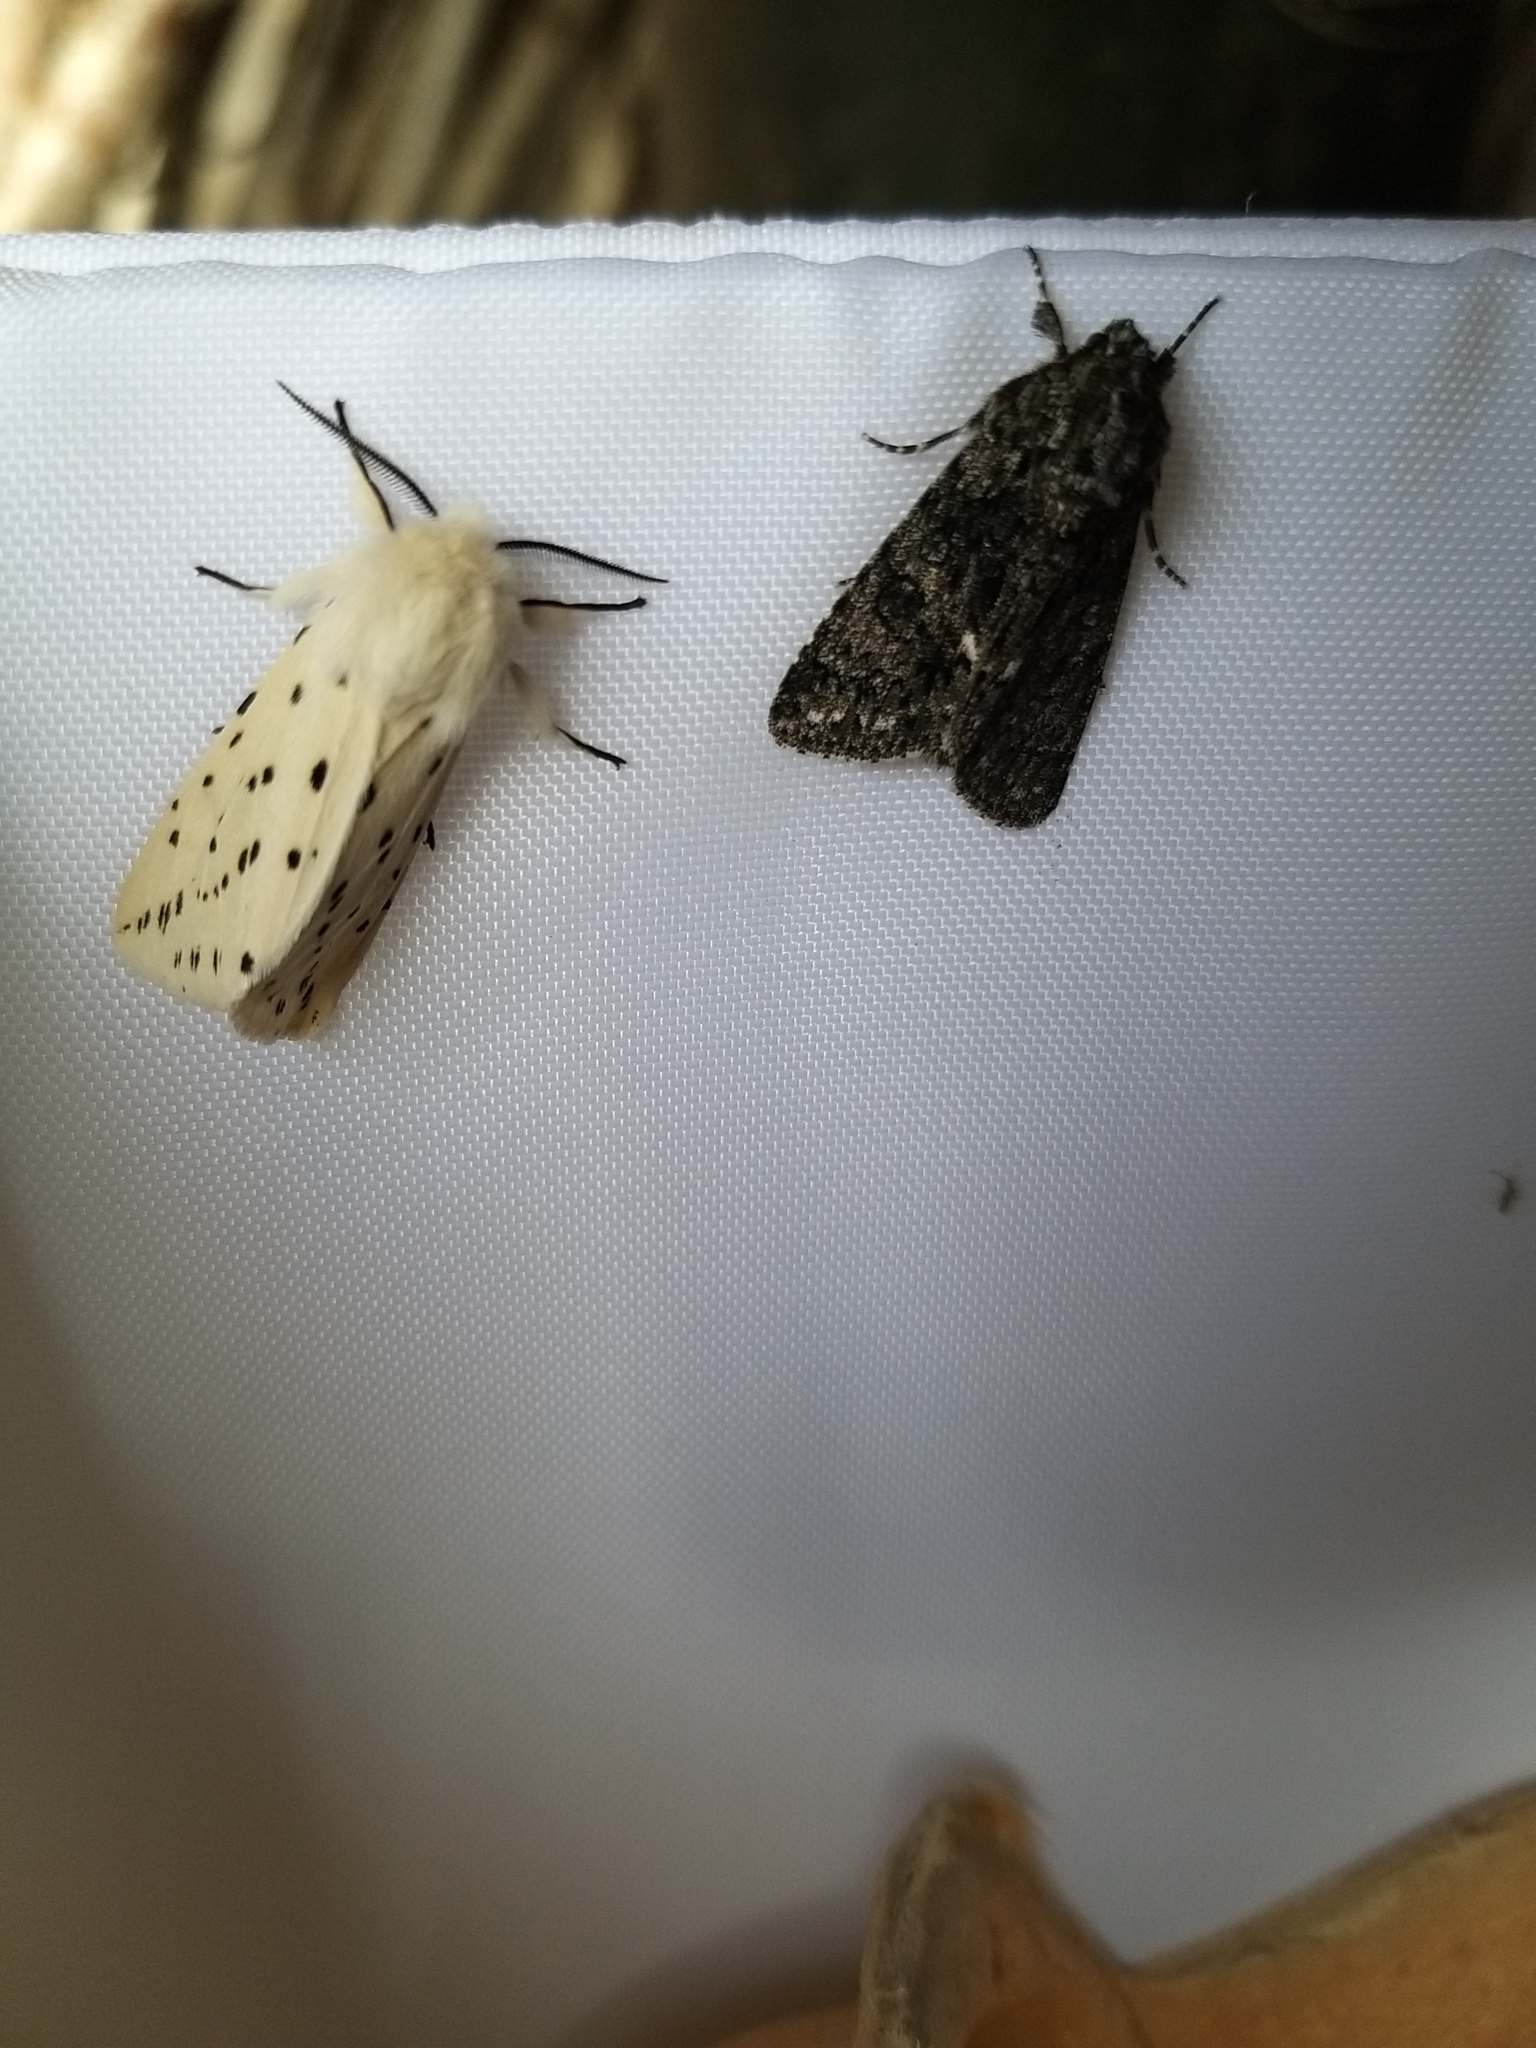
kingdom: Animalia
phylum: Arthropoda
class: Insecta
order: Lepidoptera
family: Noctuidae
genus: Acronicta
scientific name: Acronicta rumicis
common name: Knot grass
